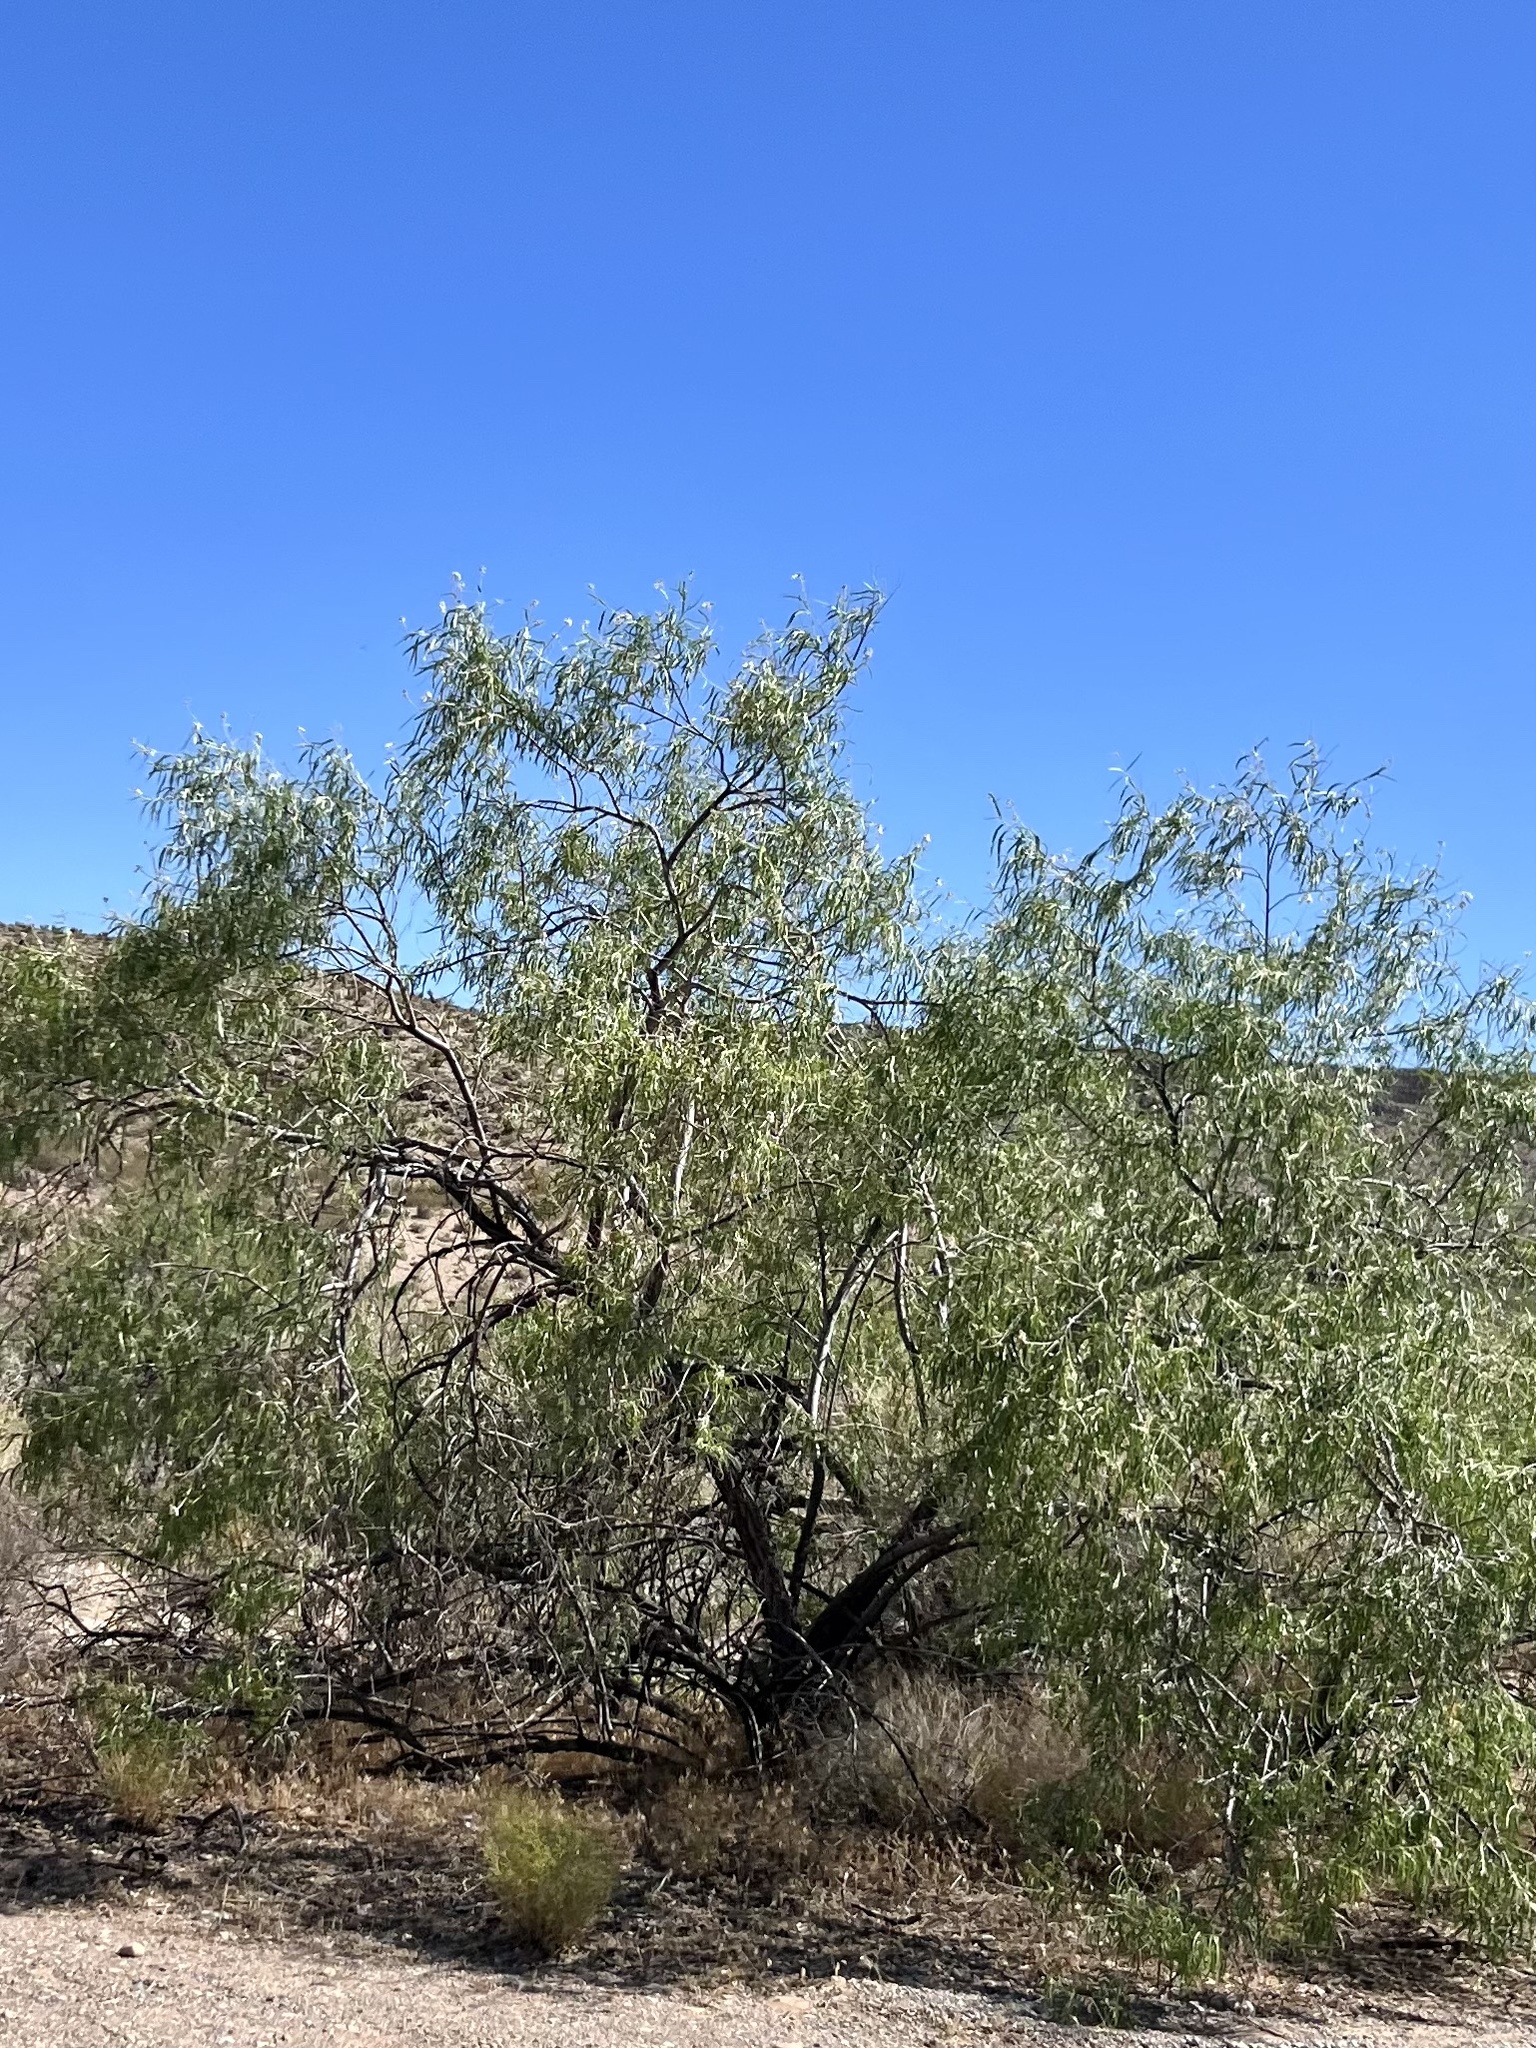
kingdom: Plantae
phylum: Tracheophyta
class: Magnoliopsida
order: Lamiales
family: Bignoniaceae
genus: Chilopsis
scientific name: Chilopsis linearis
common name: Desert-willow
